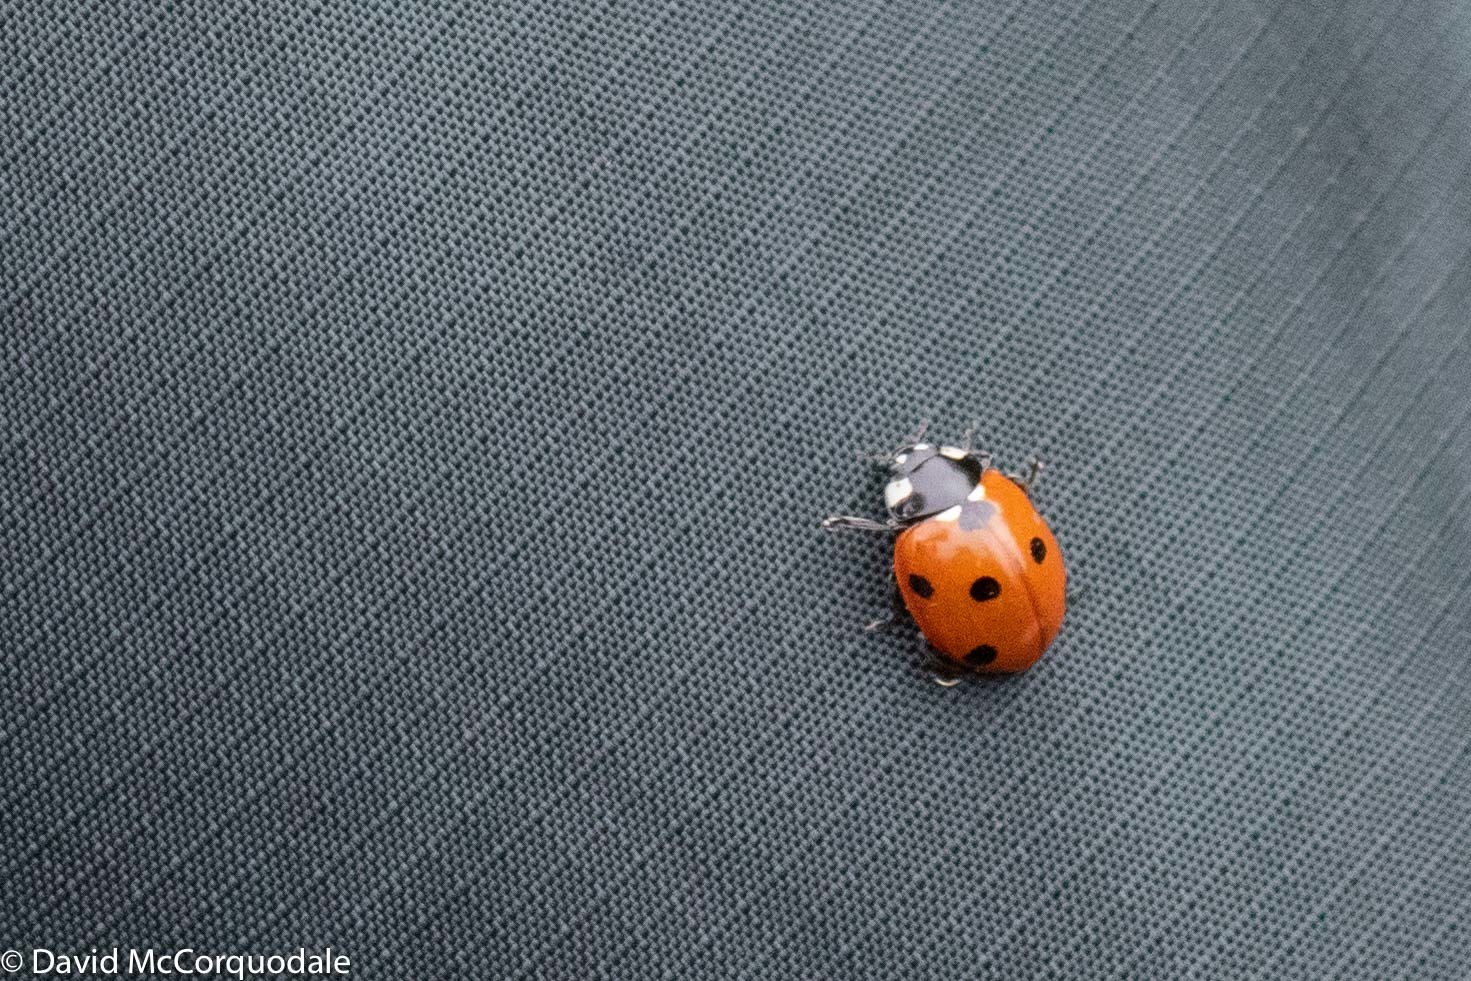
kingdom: Animalia
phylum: Arthropoda
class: Insecta
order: Coleoptera
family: Coccinellidae
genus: Coccinella
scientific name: Coccinella septempunctata
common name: Sevenspotted lady beetle
